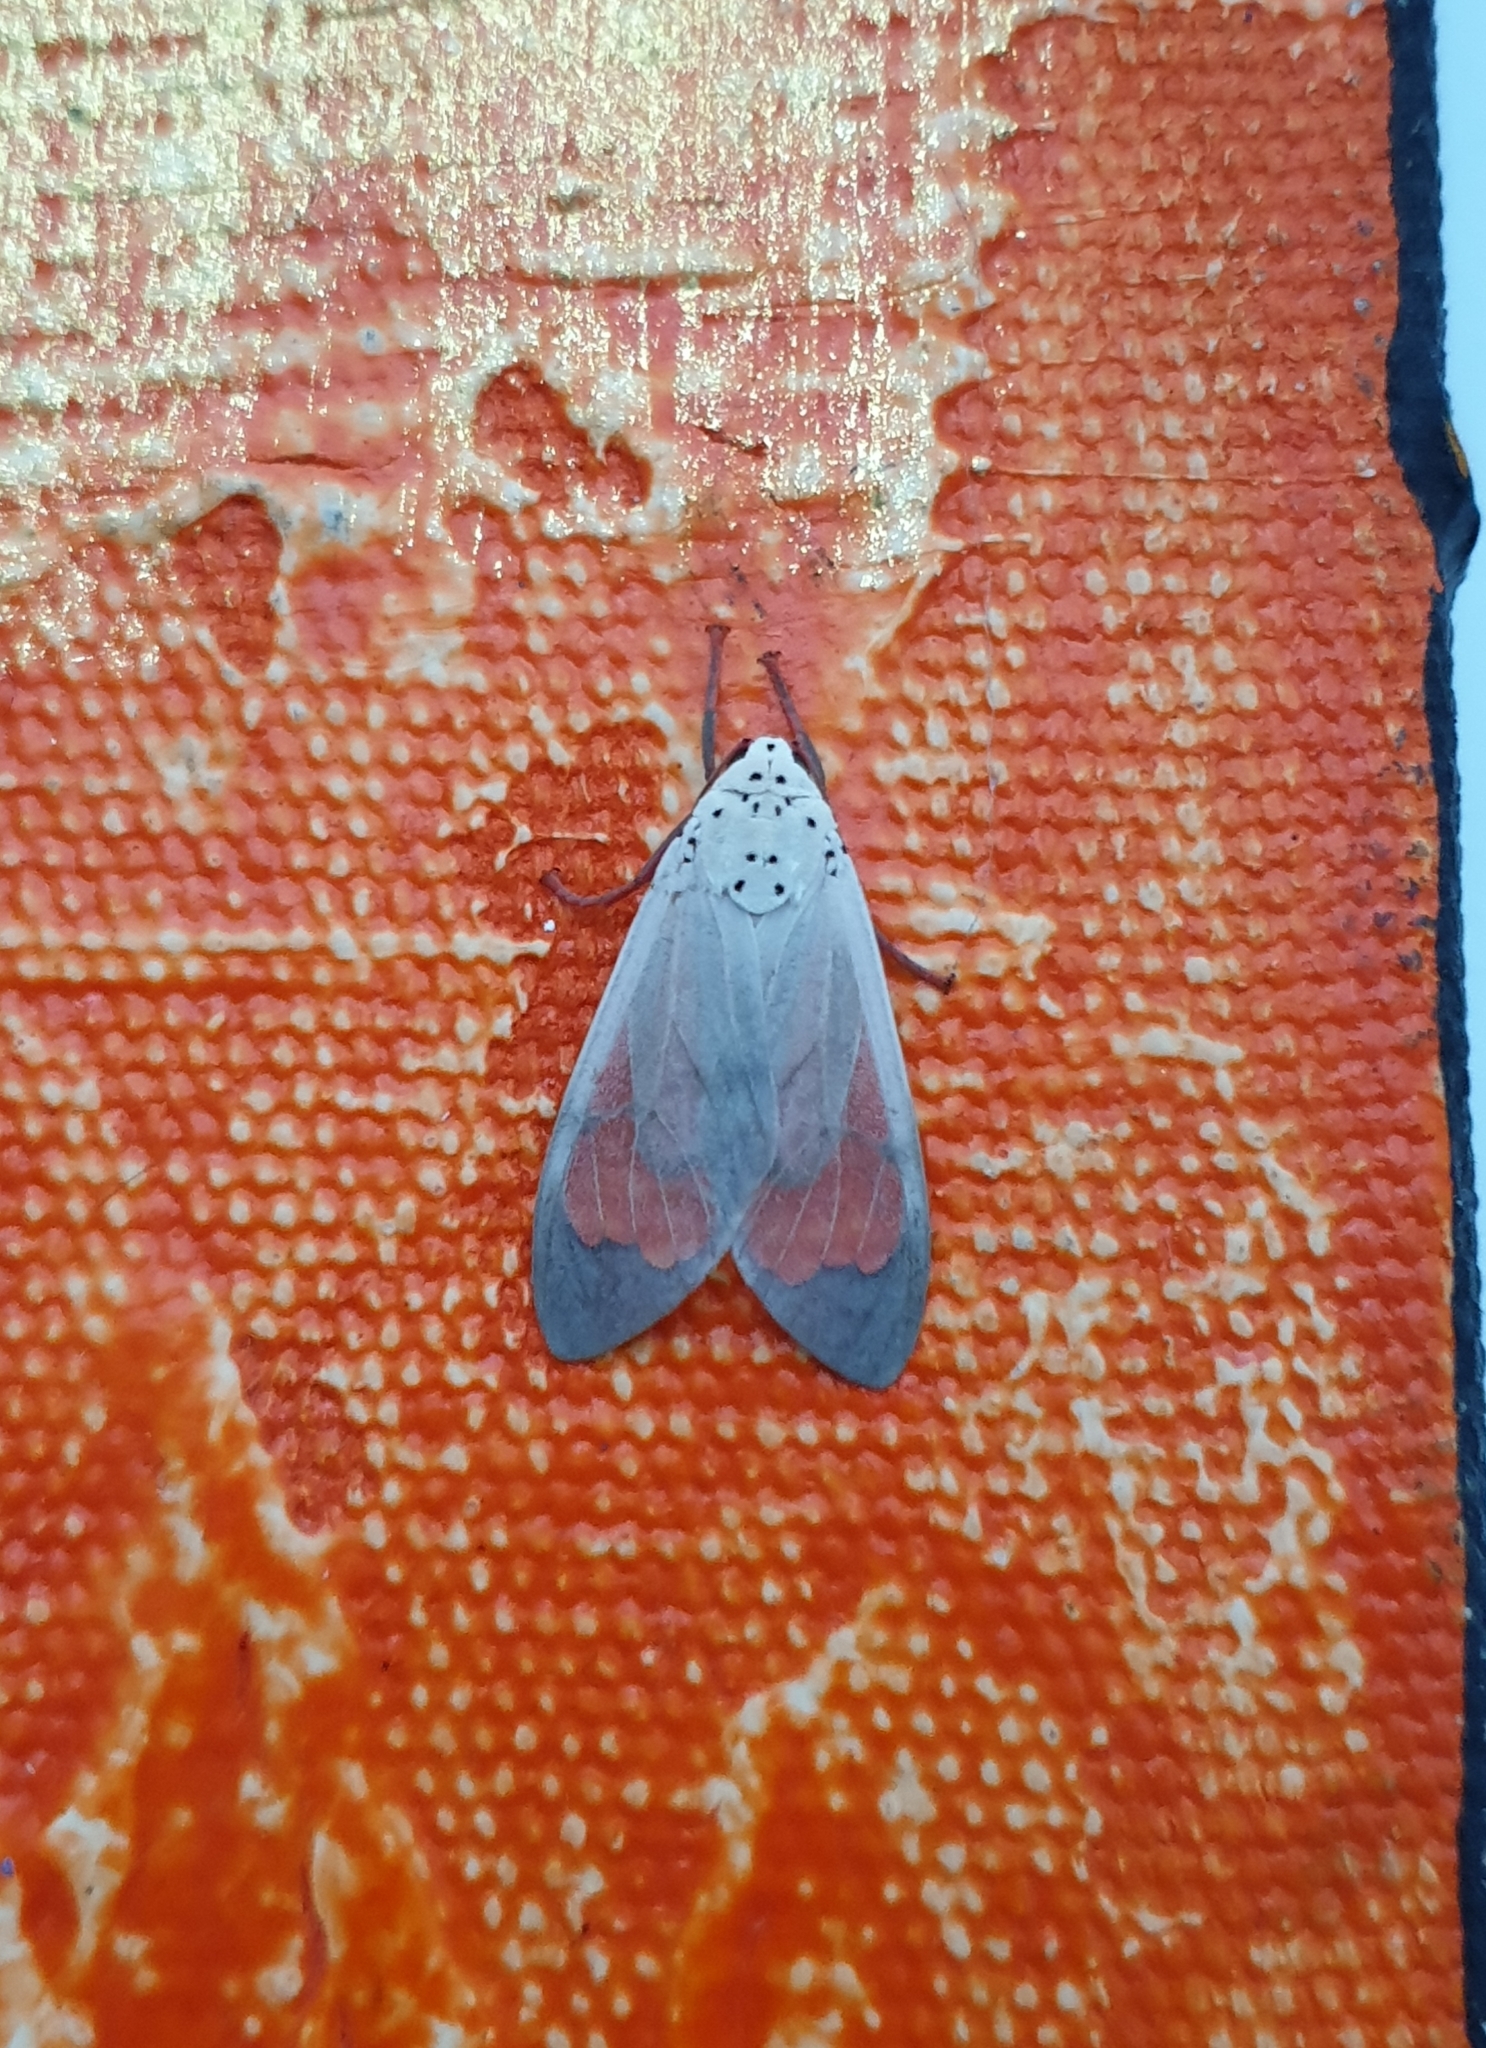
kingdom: Animalia
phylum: Arthropoda
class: Insecta
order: Lepidoptera
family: Erebidae
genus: Amerila
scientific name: Amerila astreus
